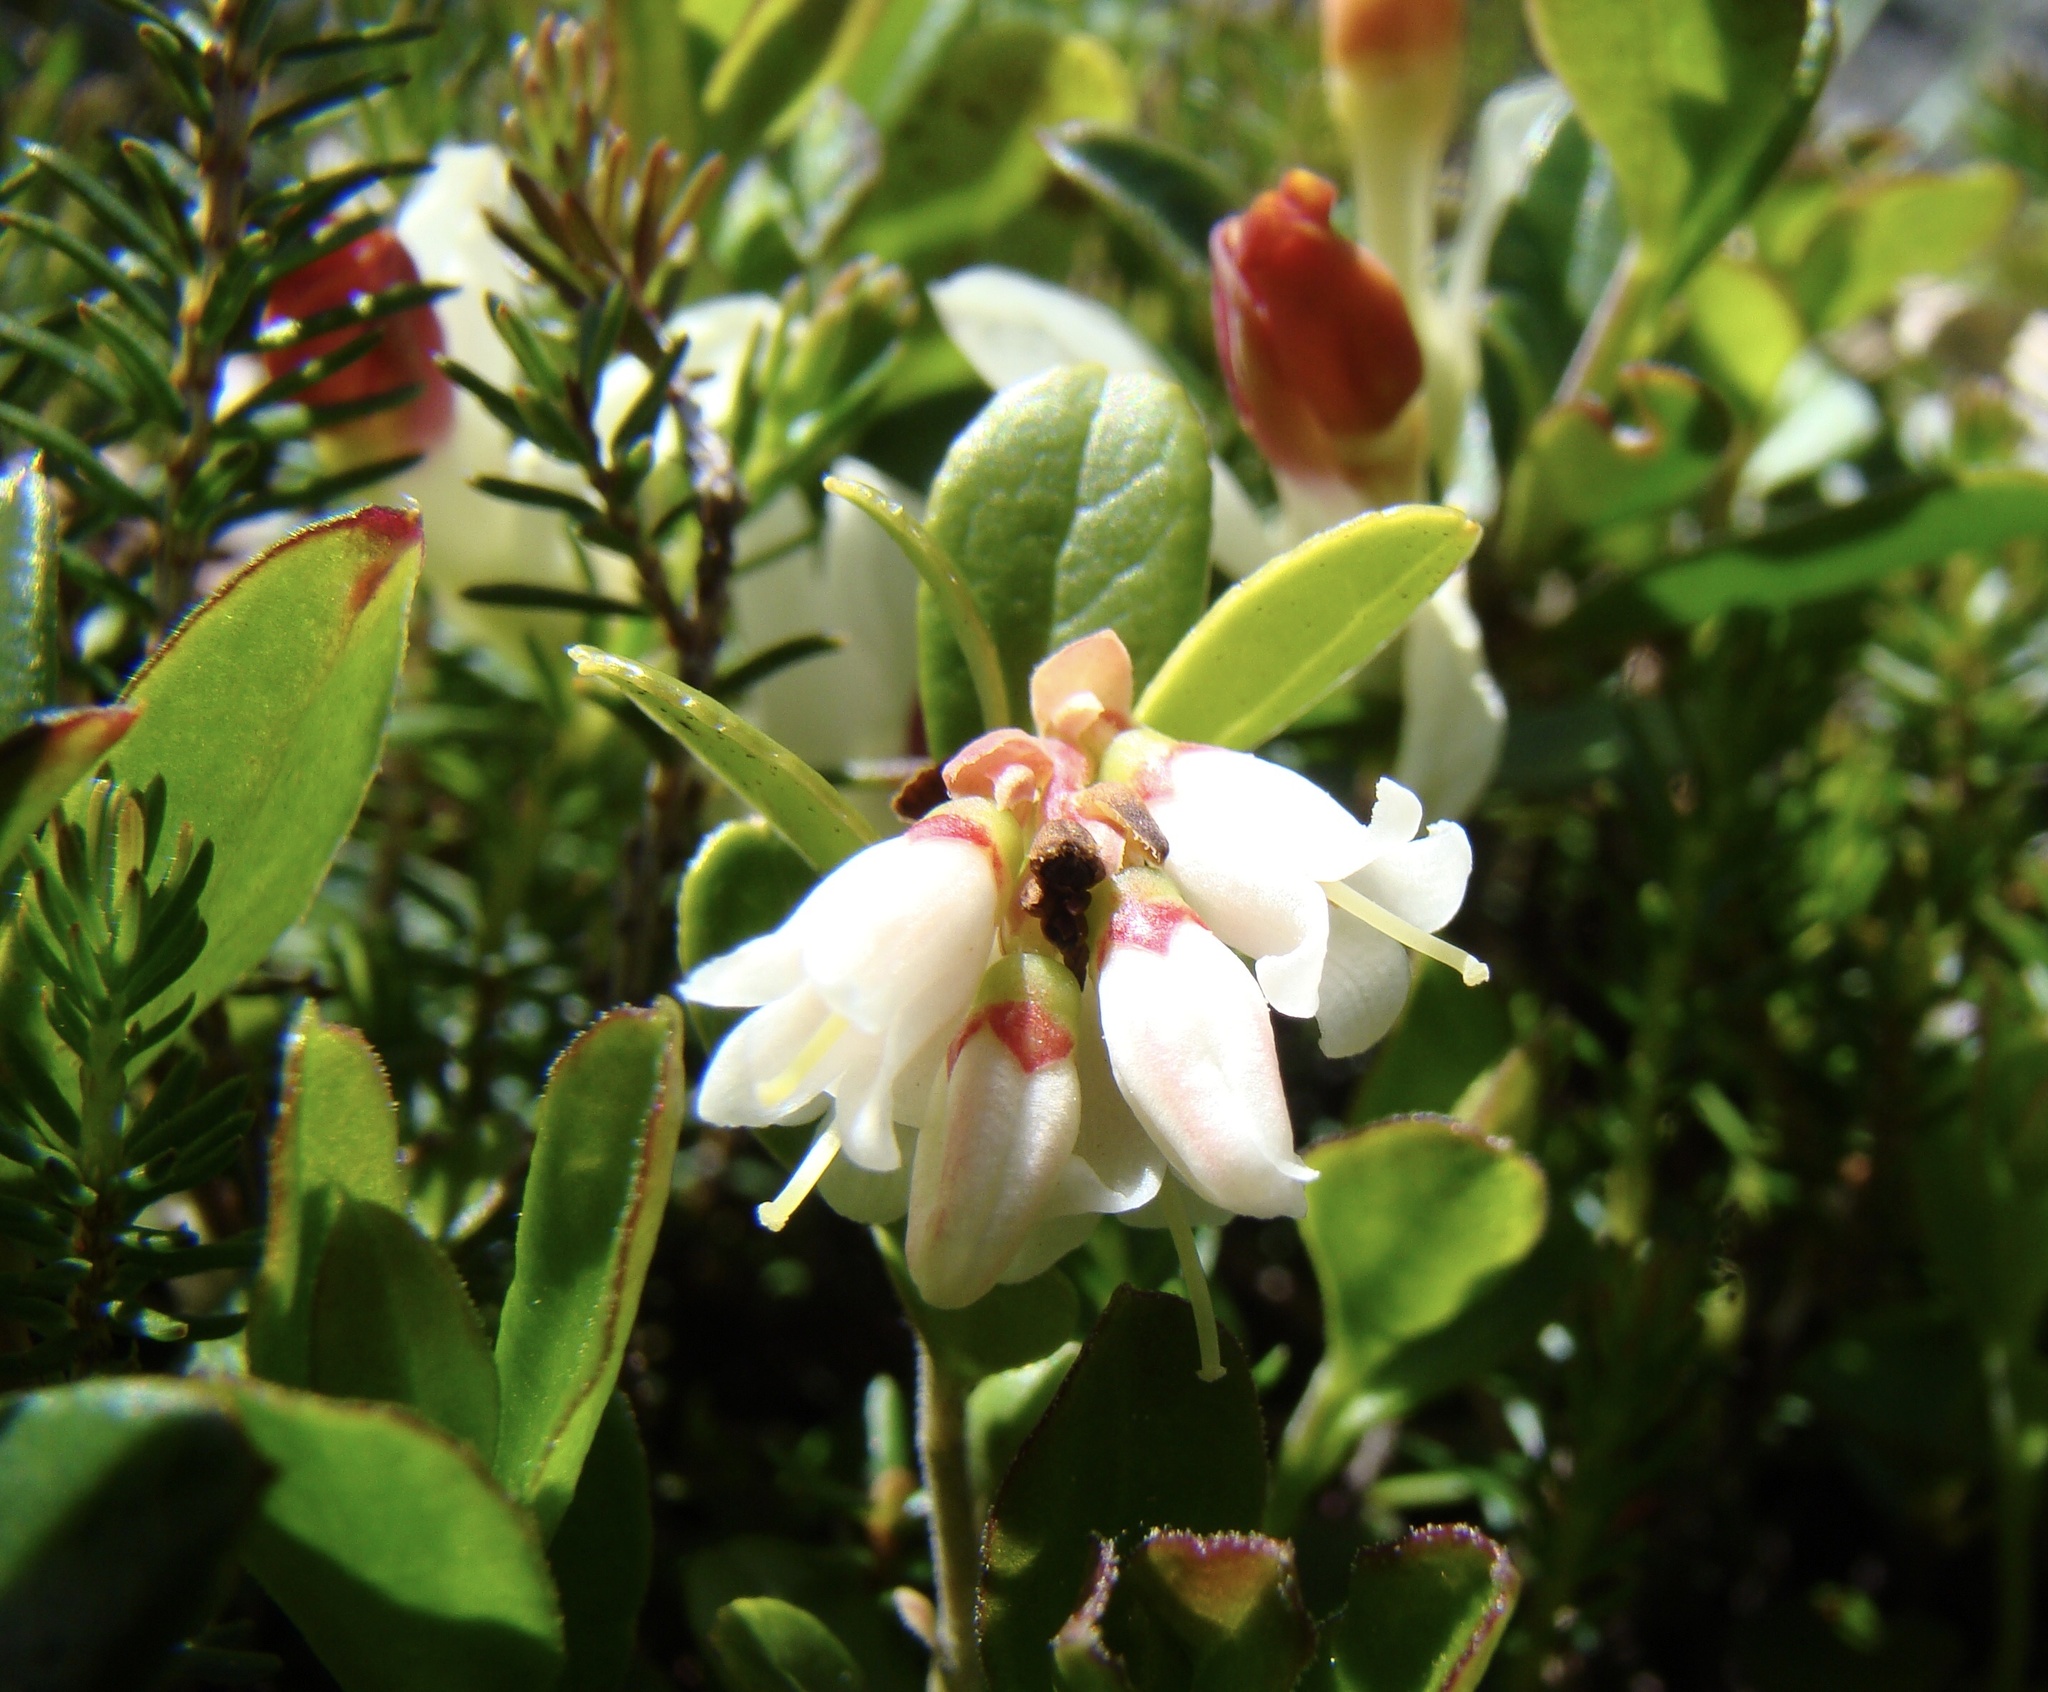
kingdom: Plantae
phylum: Tracheophyta
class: Magnoliopsida
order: Ericales
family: Ericaceae
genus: Vaccinium
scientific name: Vaccinium vitis-idaea
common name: Cowberry
